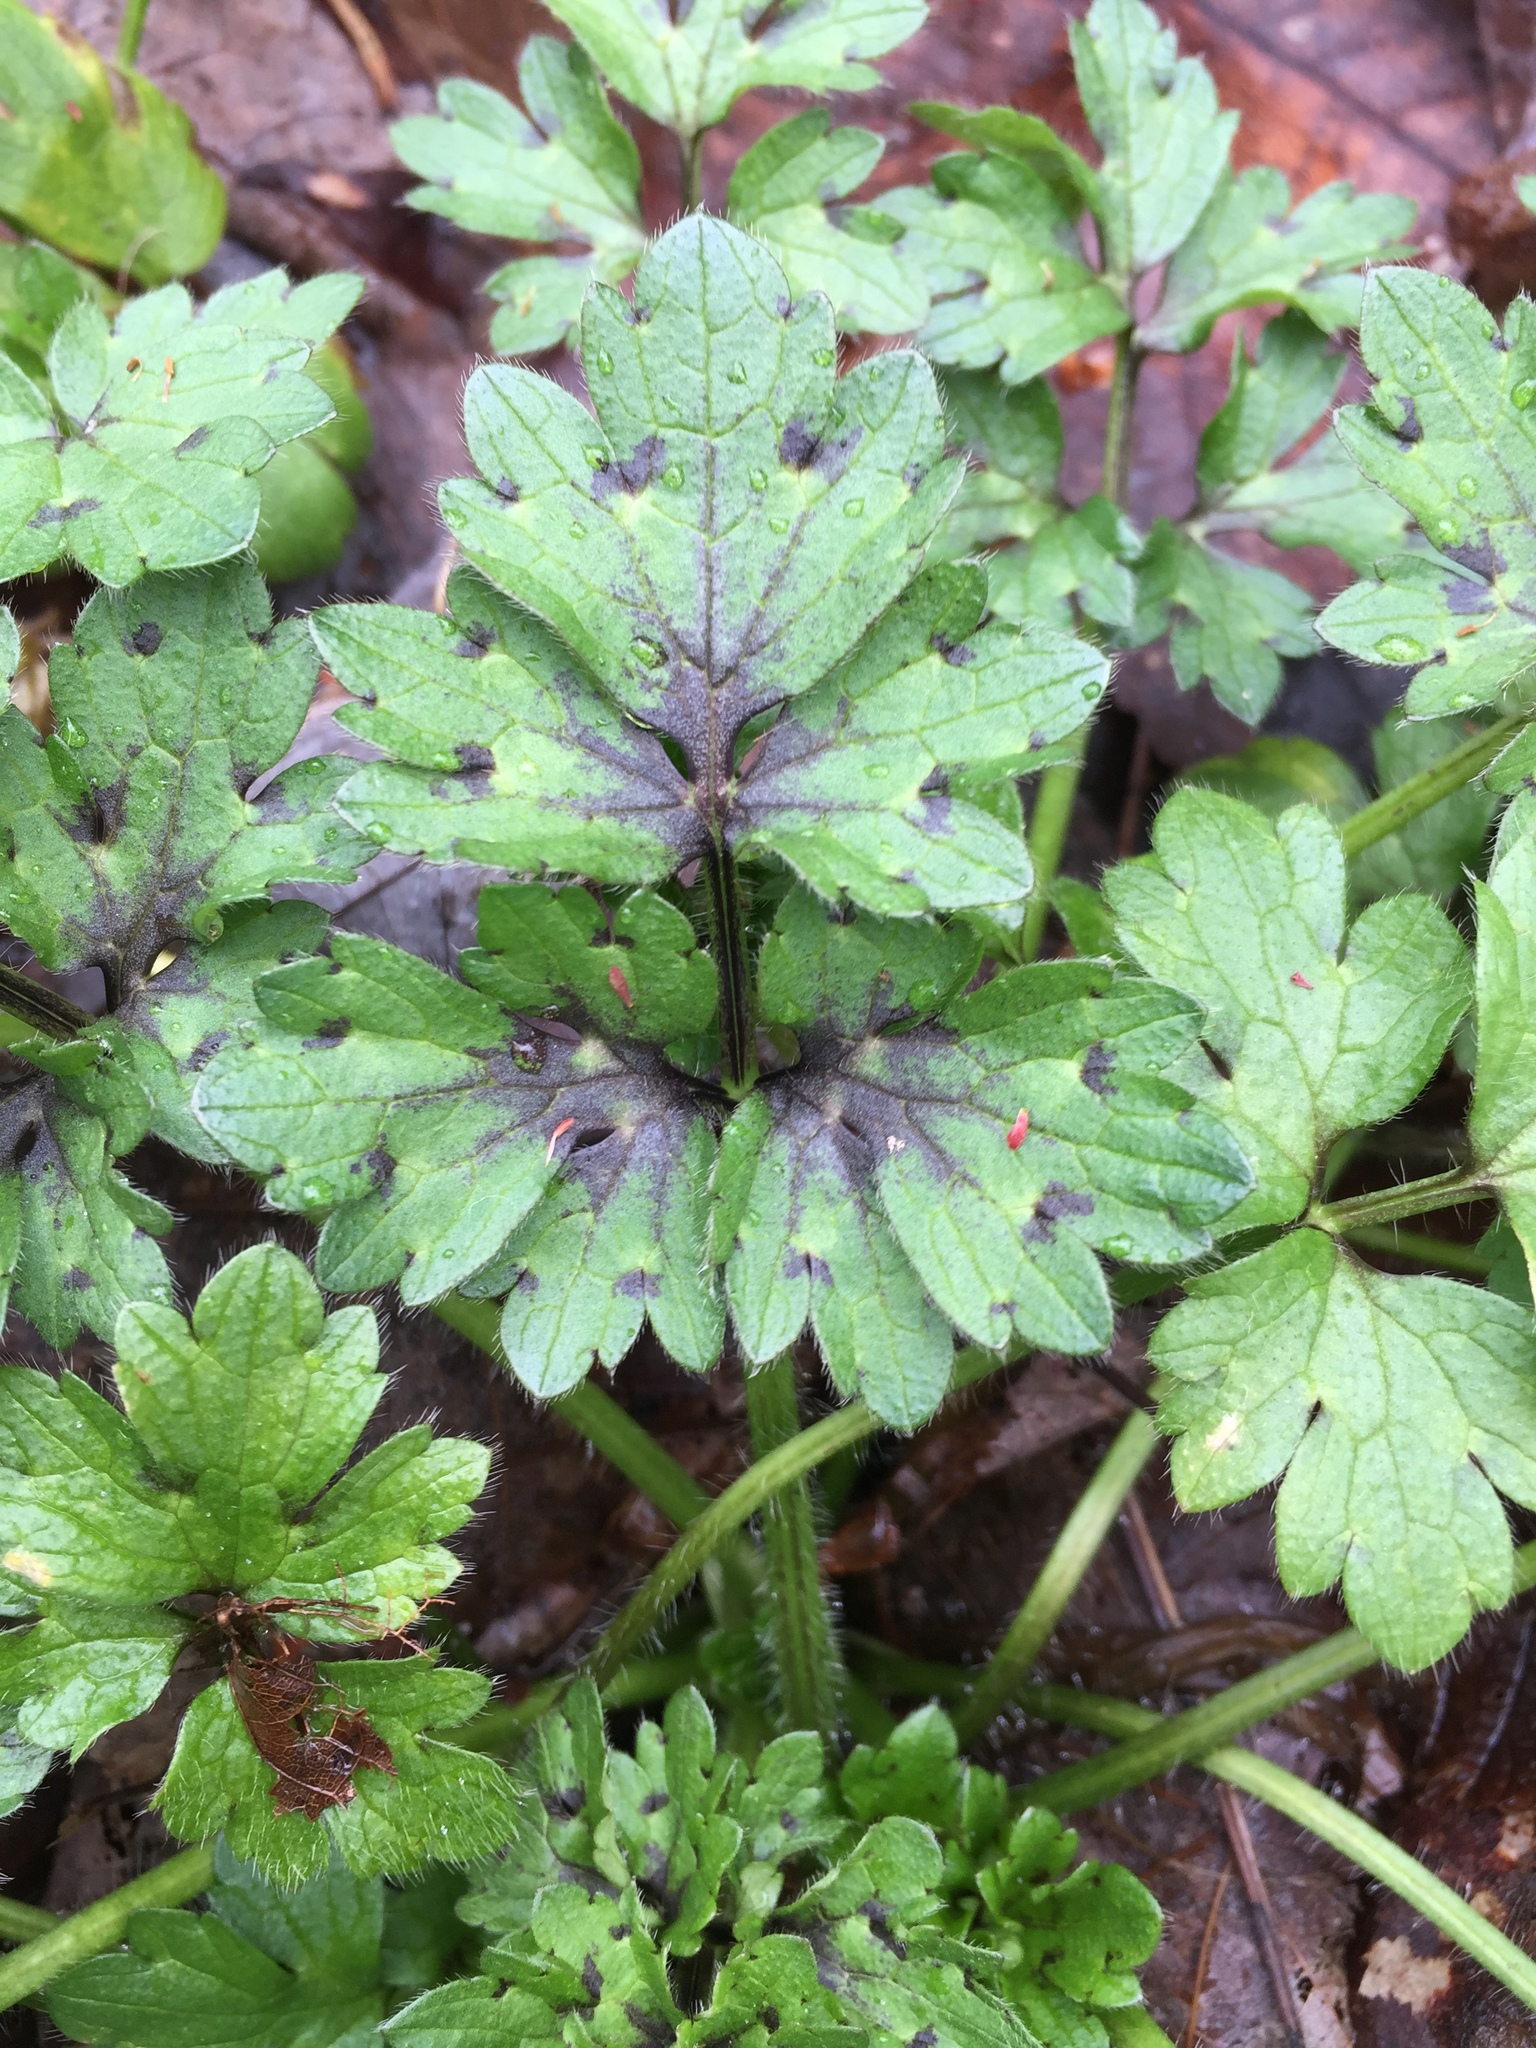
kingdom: Plantae
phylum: Tracheophyta
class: Magnoliopsida
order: Ranunculales
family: Ranunculaceae
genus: Ranunculus
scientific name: Ranunculus repens
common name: Creeping buttercup
